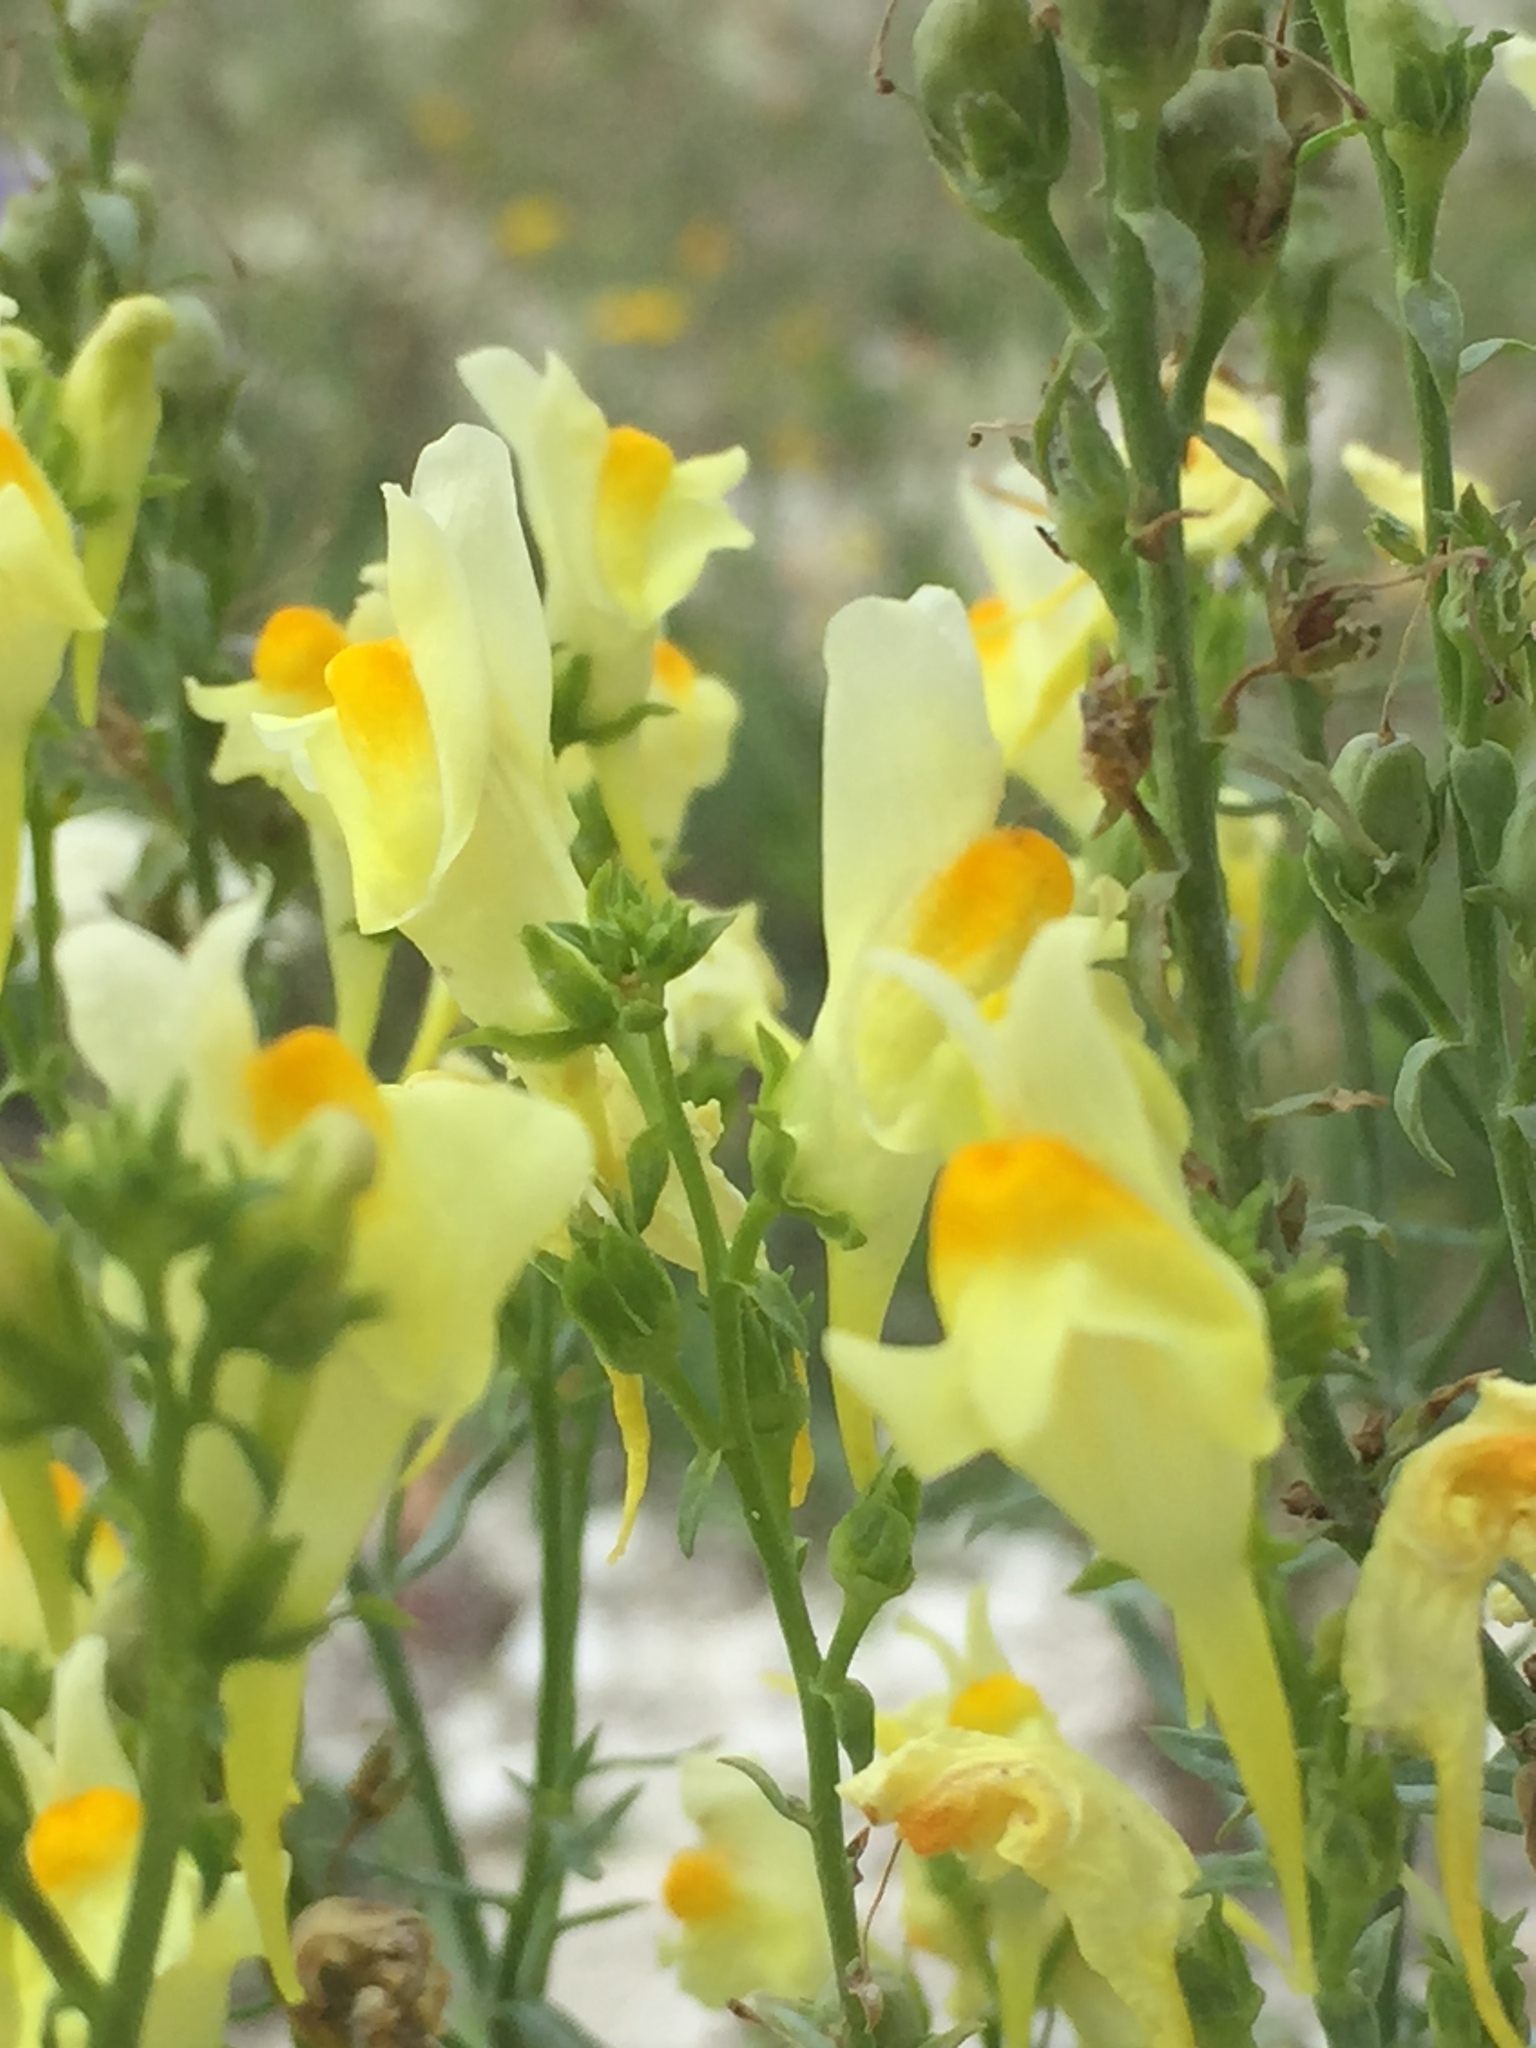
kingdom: Plantae
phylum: Tracheophyta
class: Magnoliopsida
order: Lamiales
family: Plantaginaceae
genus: Linaria
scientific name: Linaria vulgaris
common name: Butter and eggs
